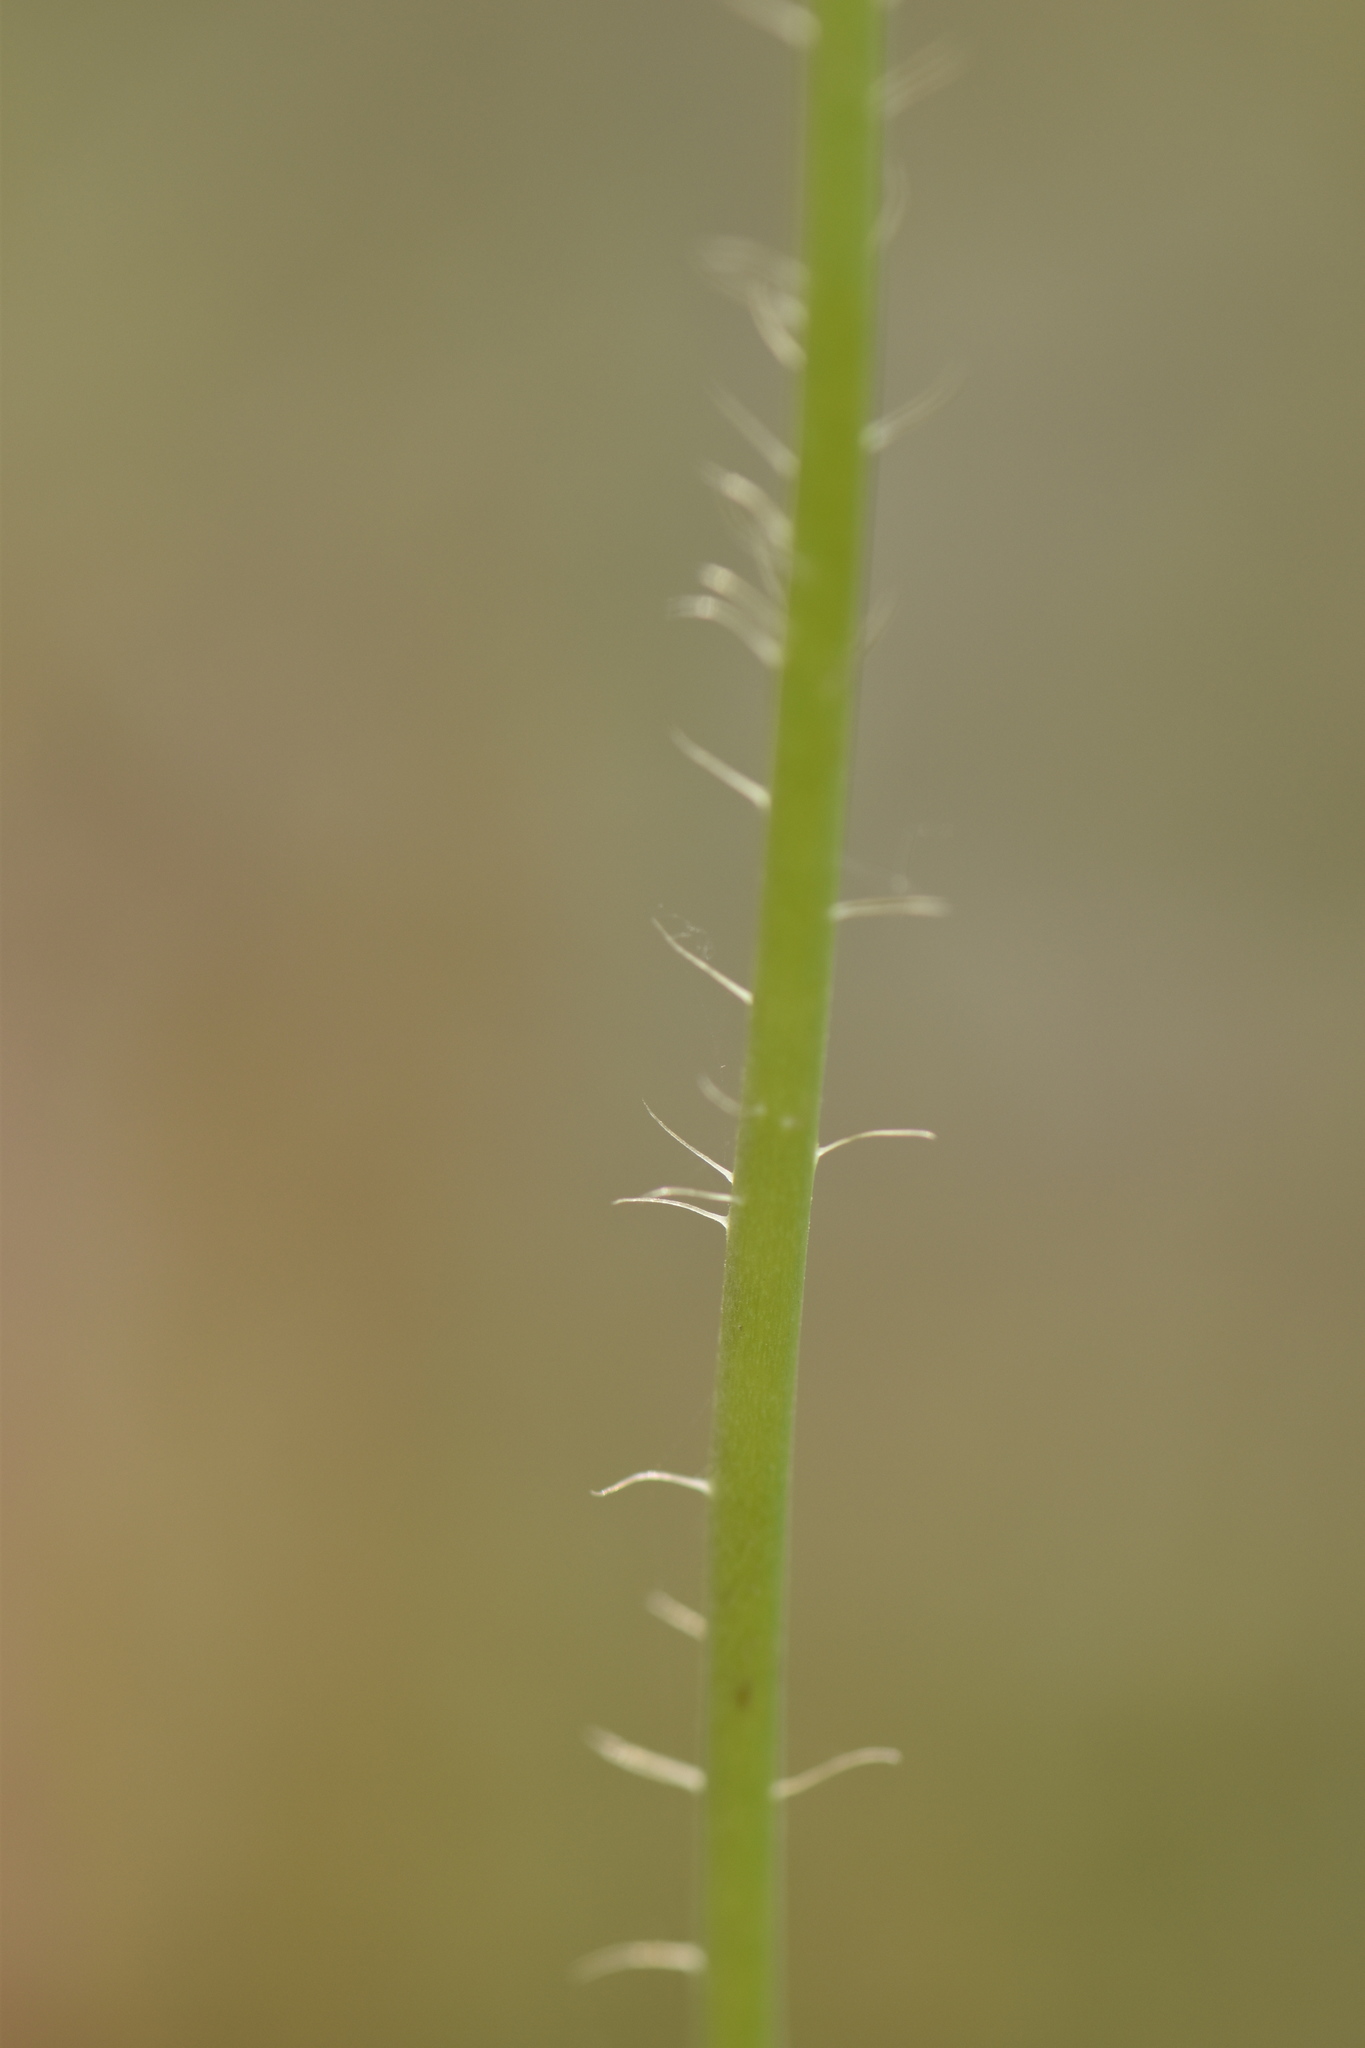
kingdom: Plantae
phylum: Tracheophyta
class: Magnoliopsida
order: Ranunculales
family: Papaveraceae
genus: Papaver
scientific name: Papaver setigerum
